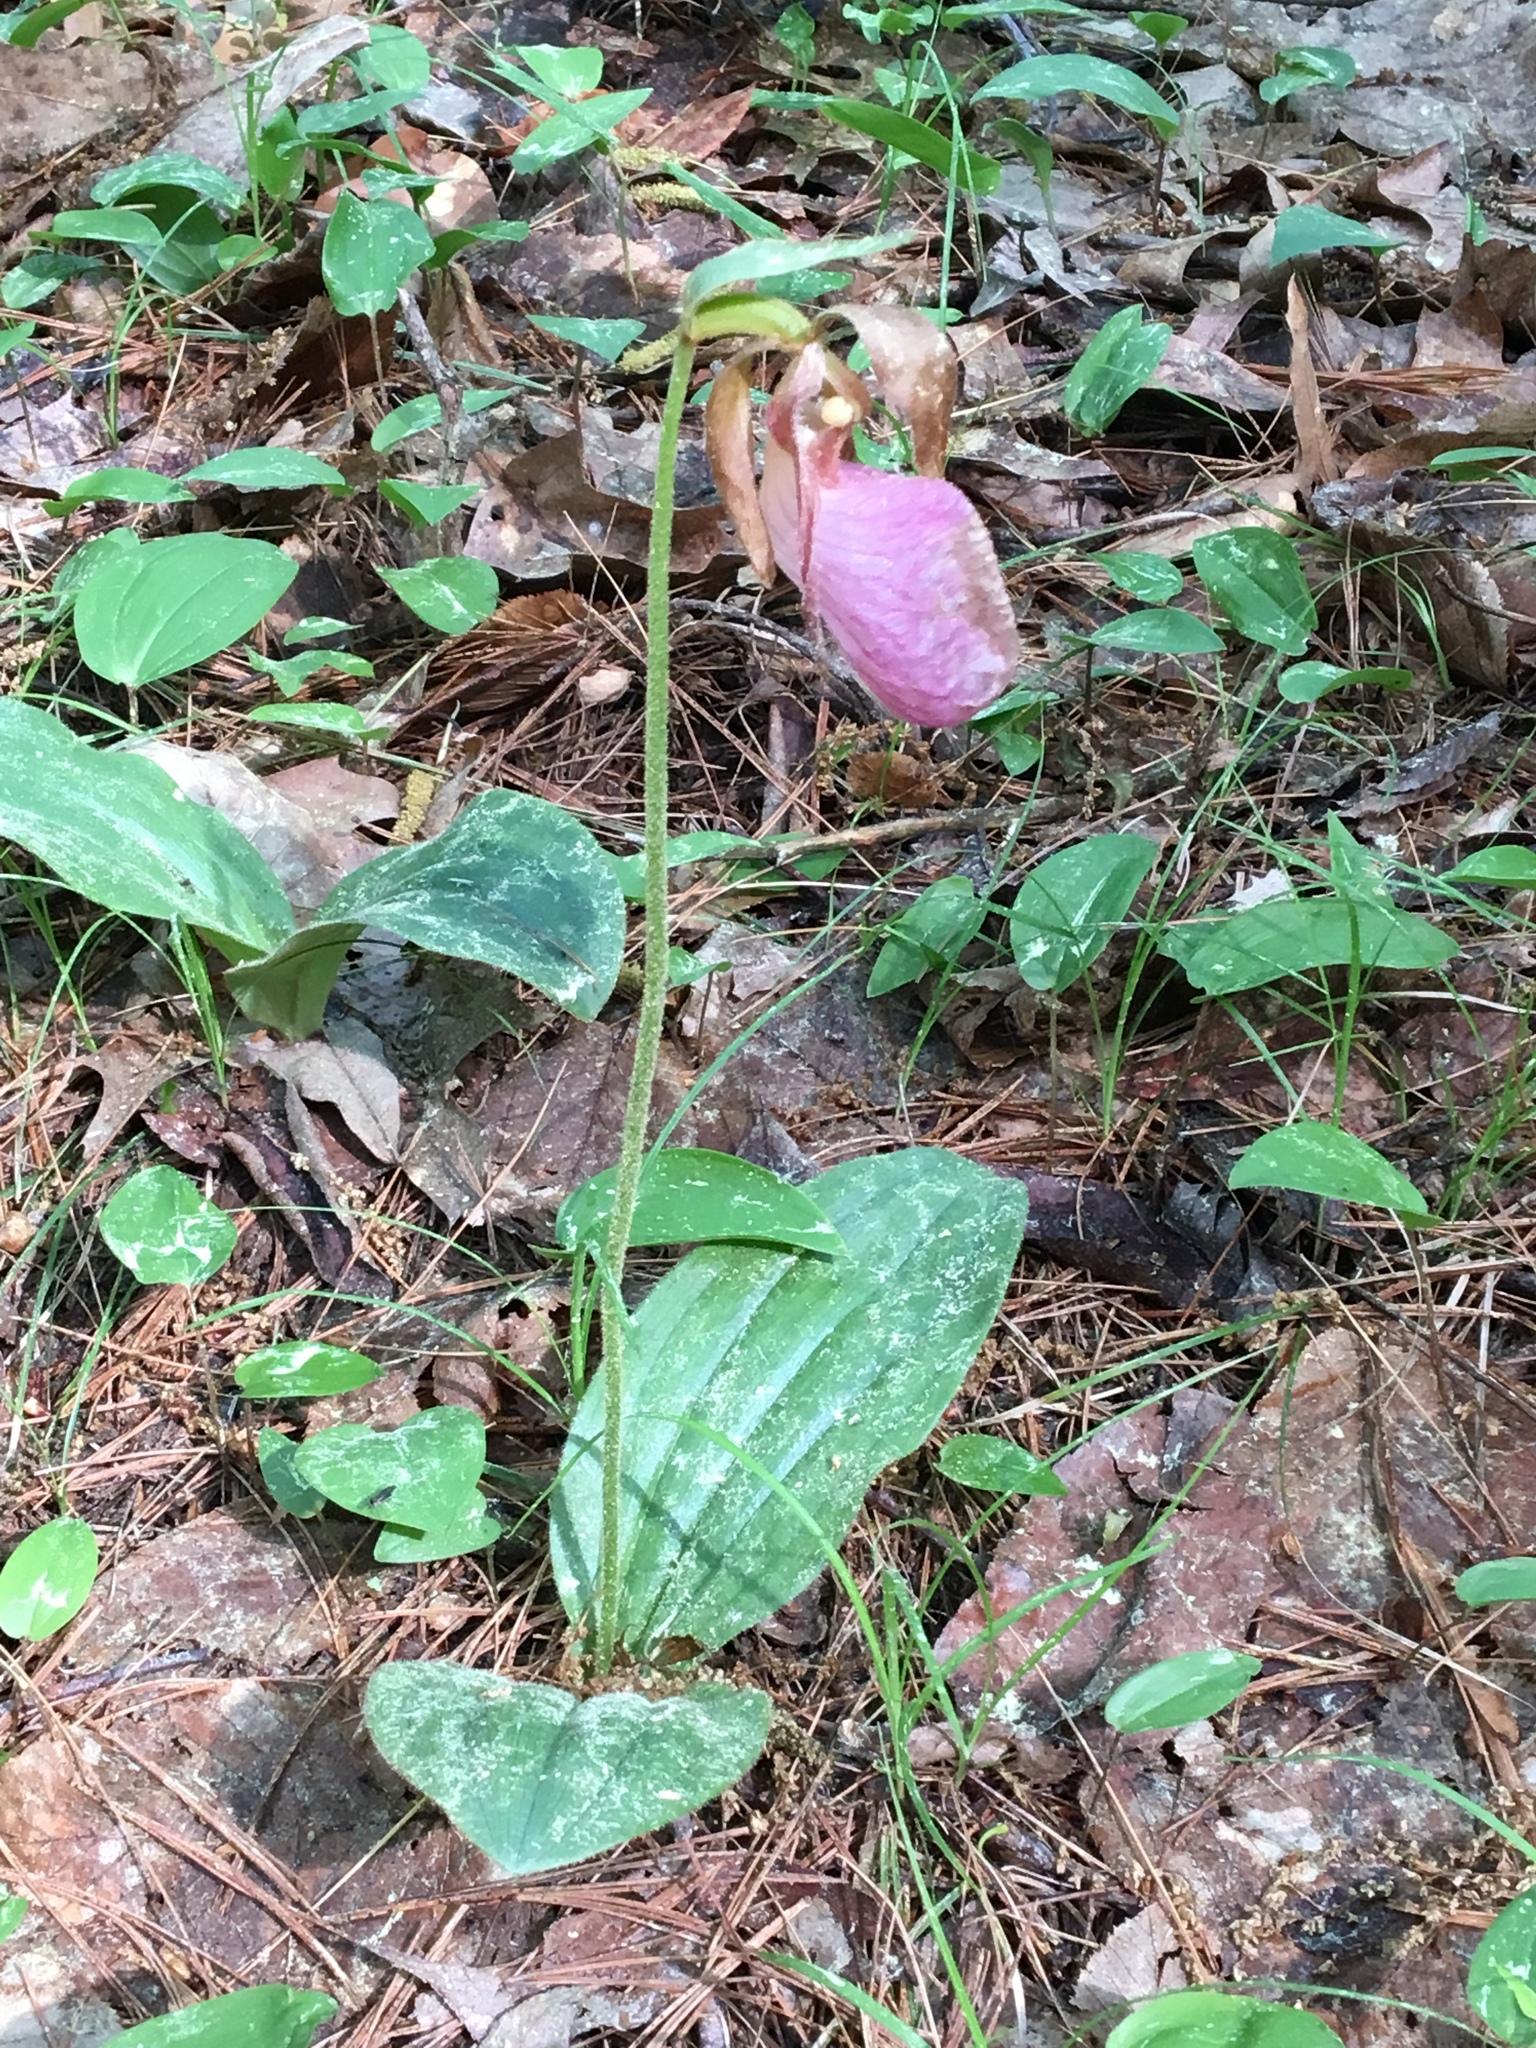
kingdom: Plantae
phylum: Tracheophyta
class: Liliopsida
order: Asparagales
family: Orchidaceae
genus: Cypripedium
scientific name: Cypripedium acaule
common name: Pink lady's-slipper
